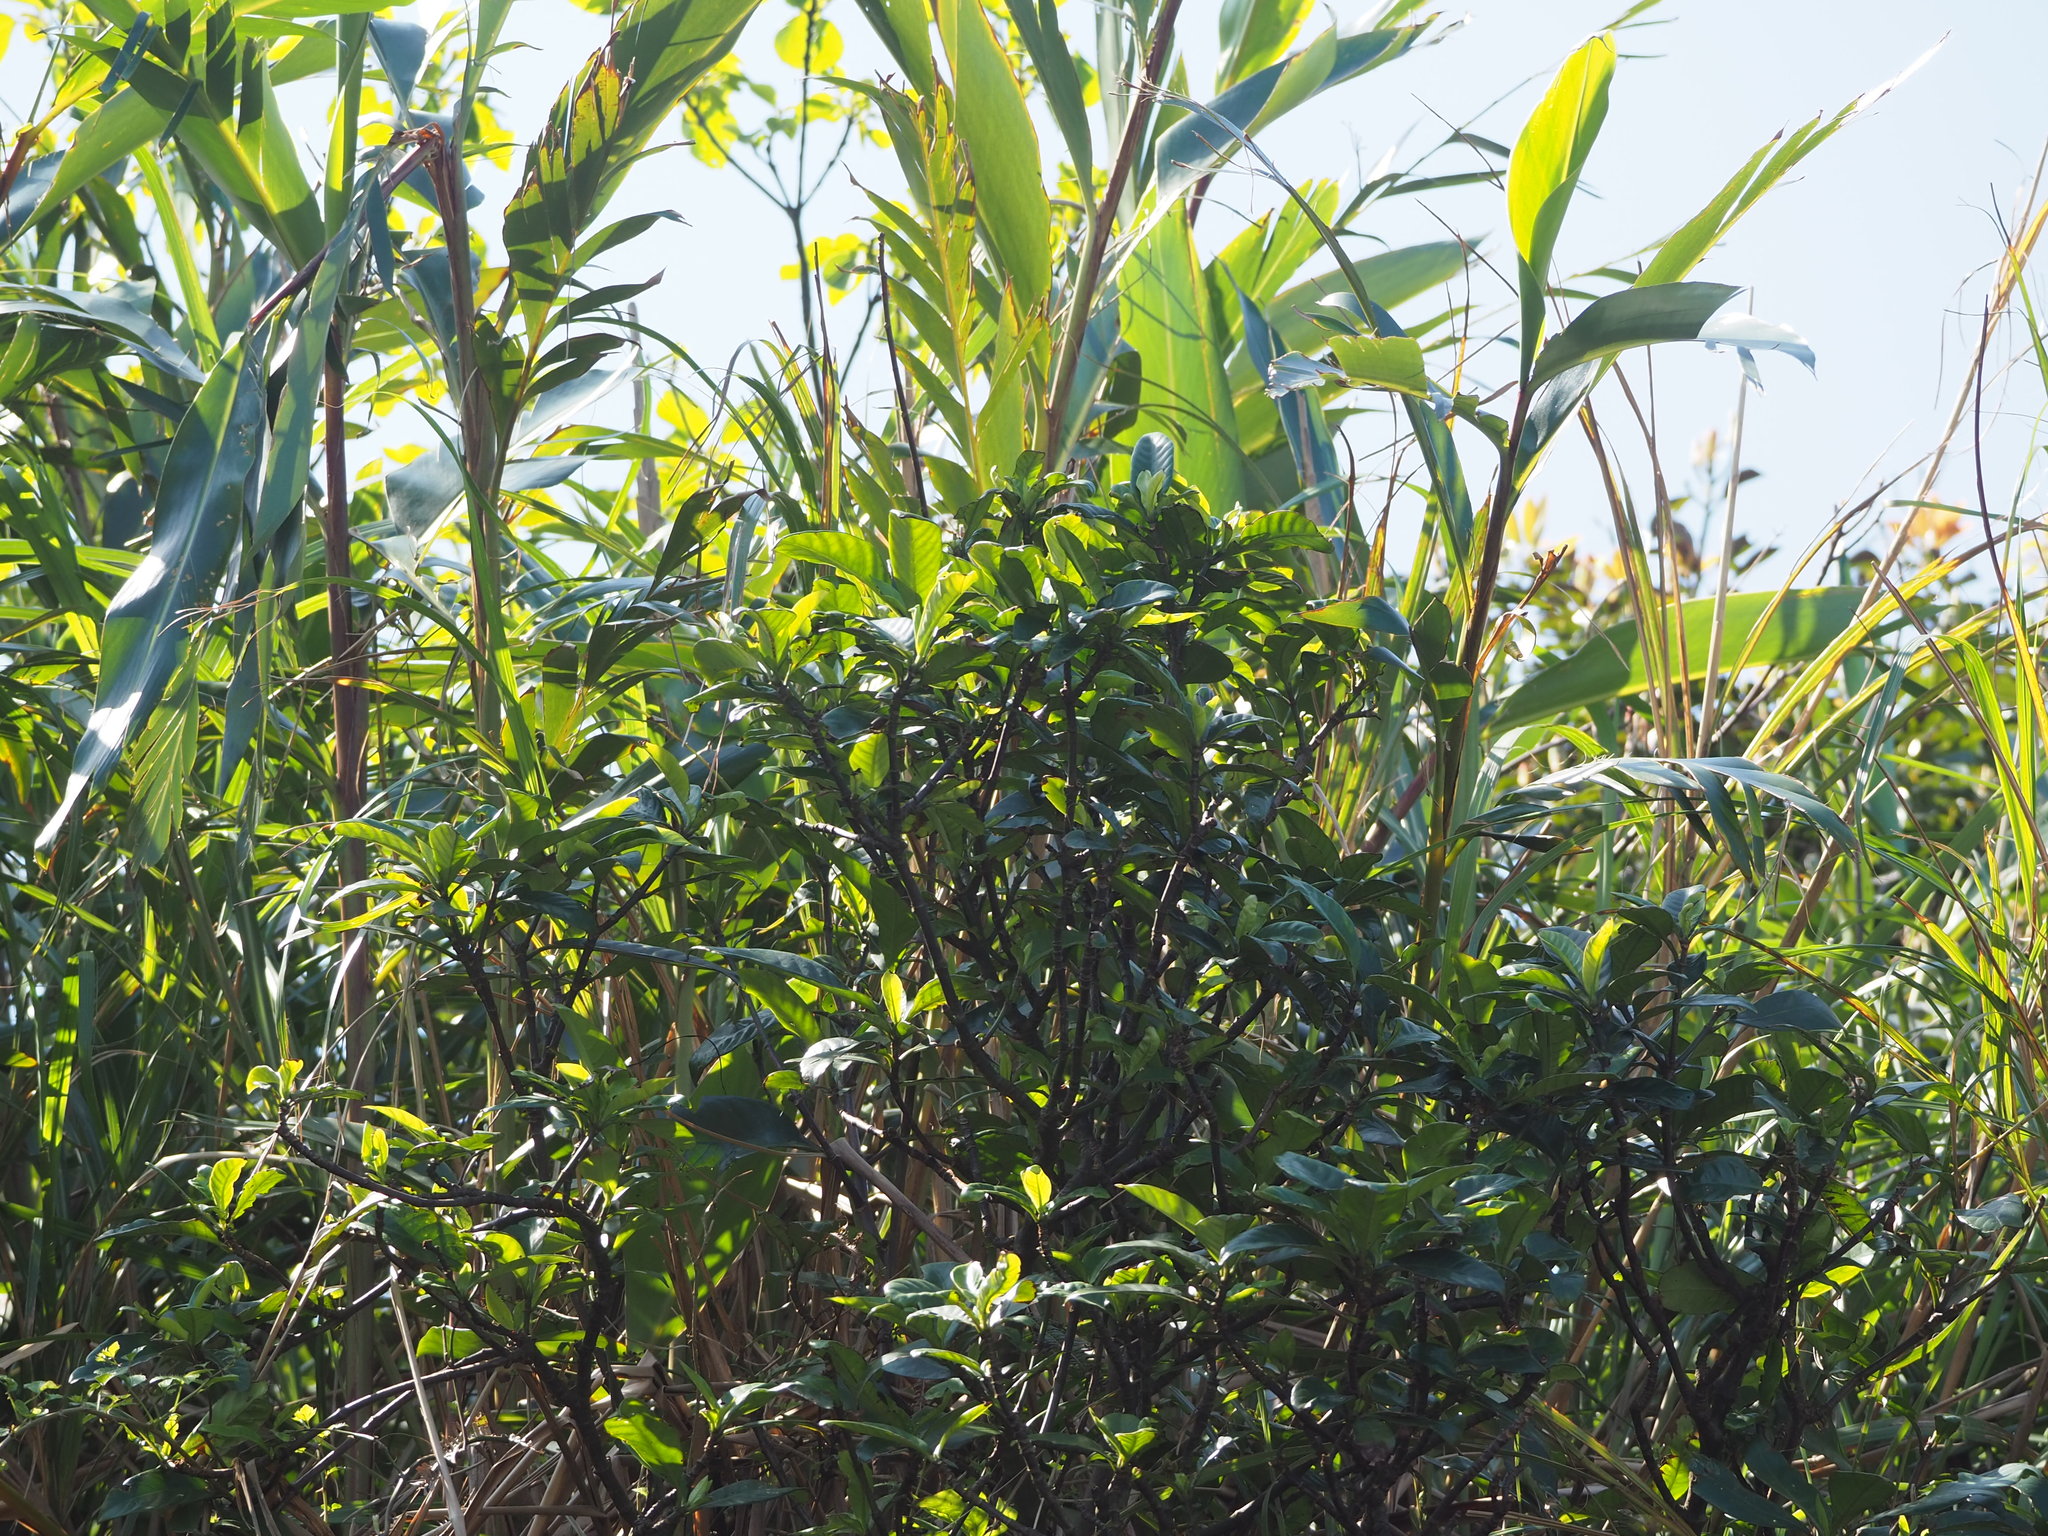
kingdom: Plantae
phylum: Tracheophyta
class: Magnoliopsida
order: Gentianales
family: Rubiaceae
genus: Psychotria
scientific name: Psychotria asiatica
